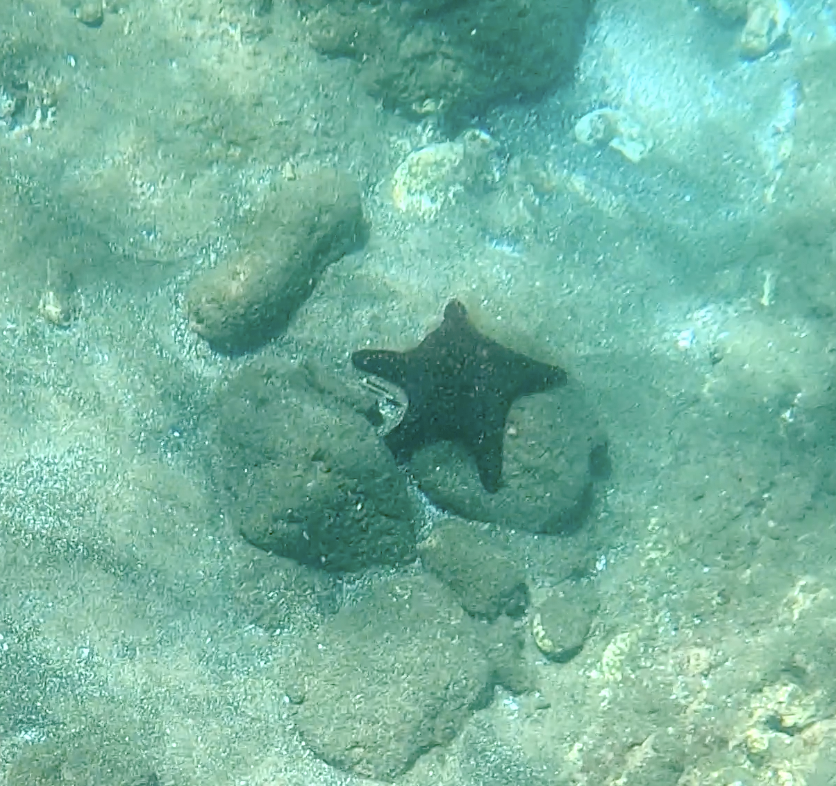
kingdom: Animalia
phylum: Echinodermata
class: Asteroidea
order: Valvatida
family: Oreasteridae
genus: Pentaceraster
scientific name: Pentaceraster cumingi
